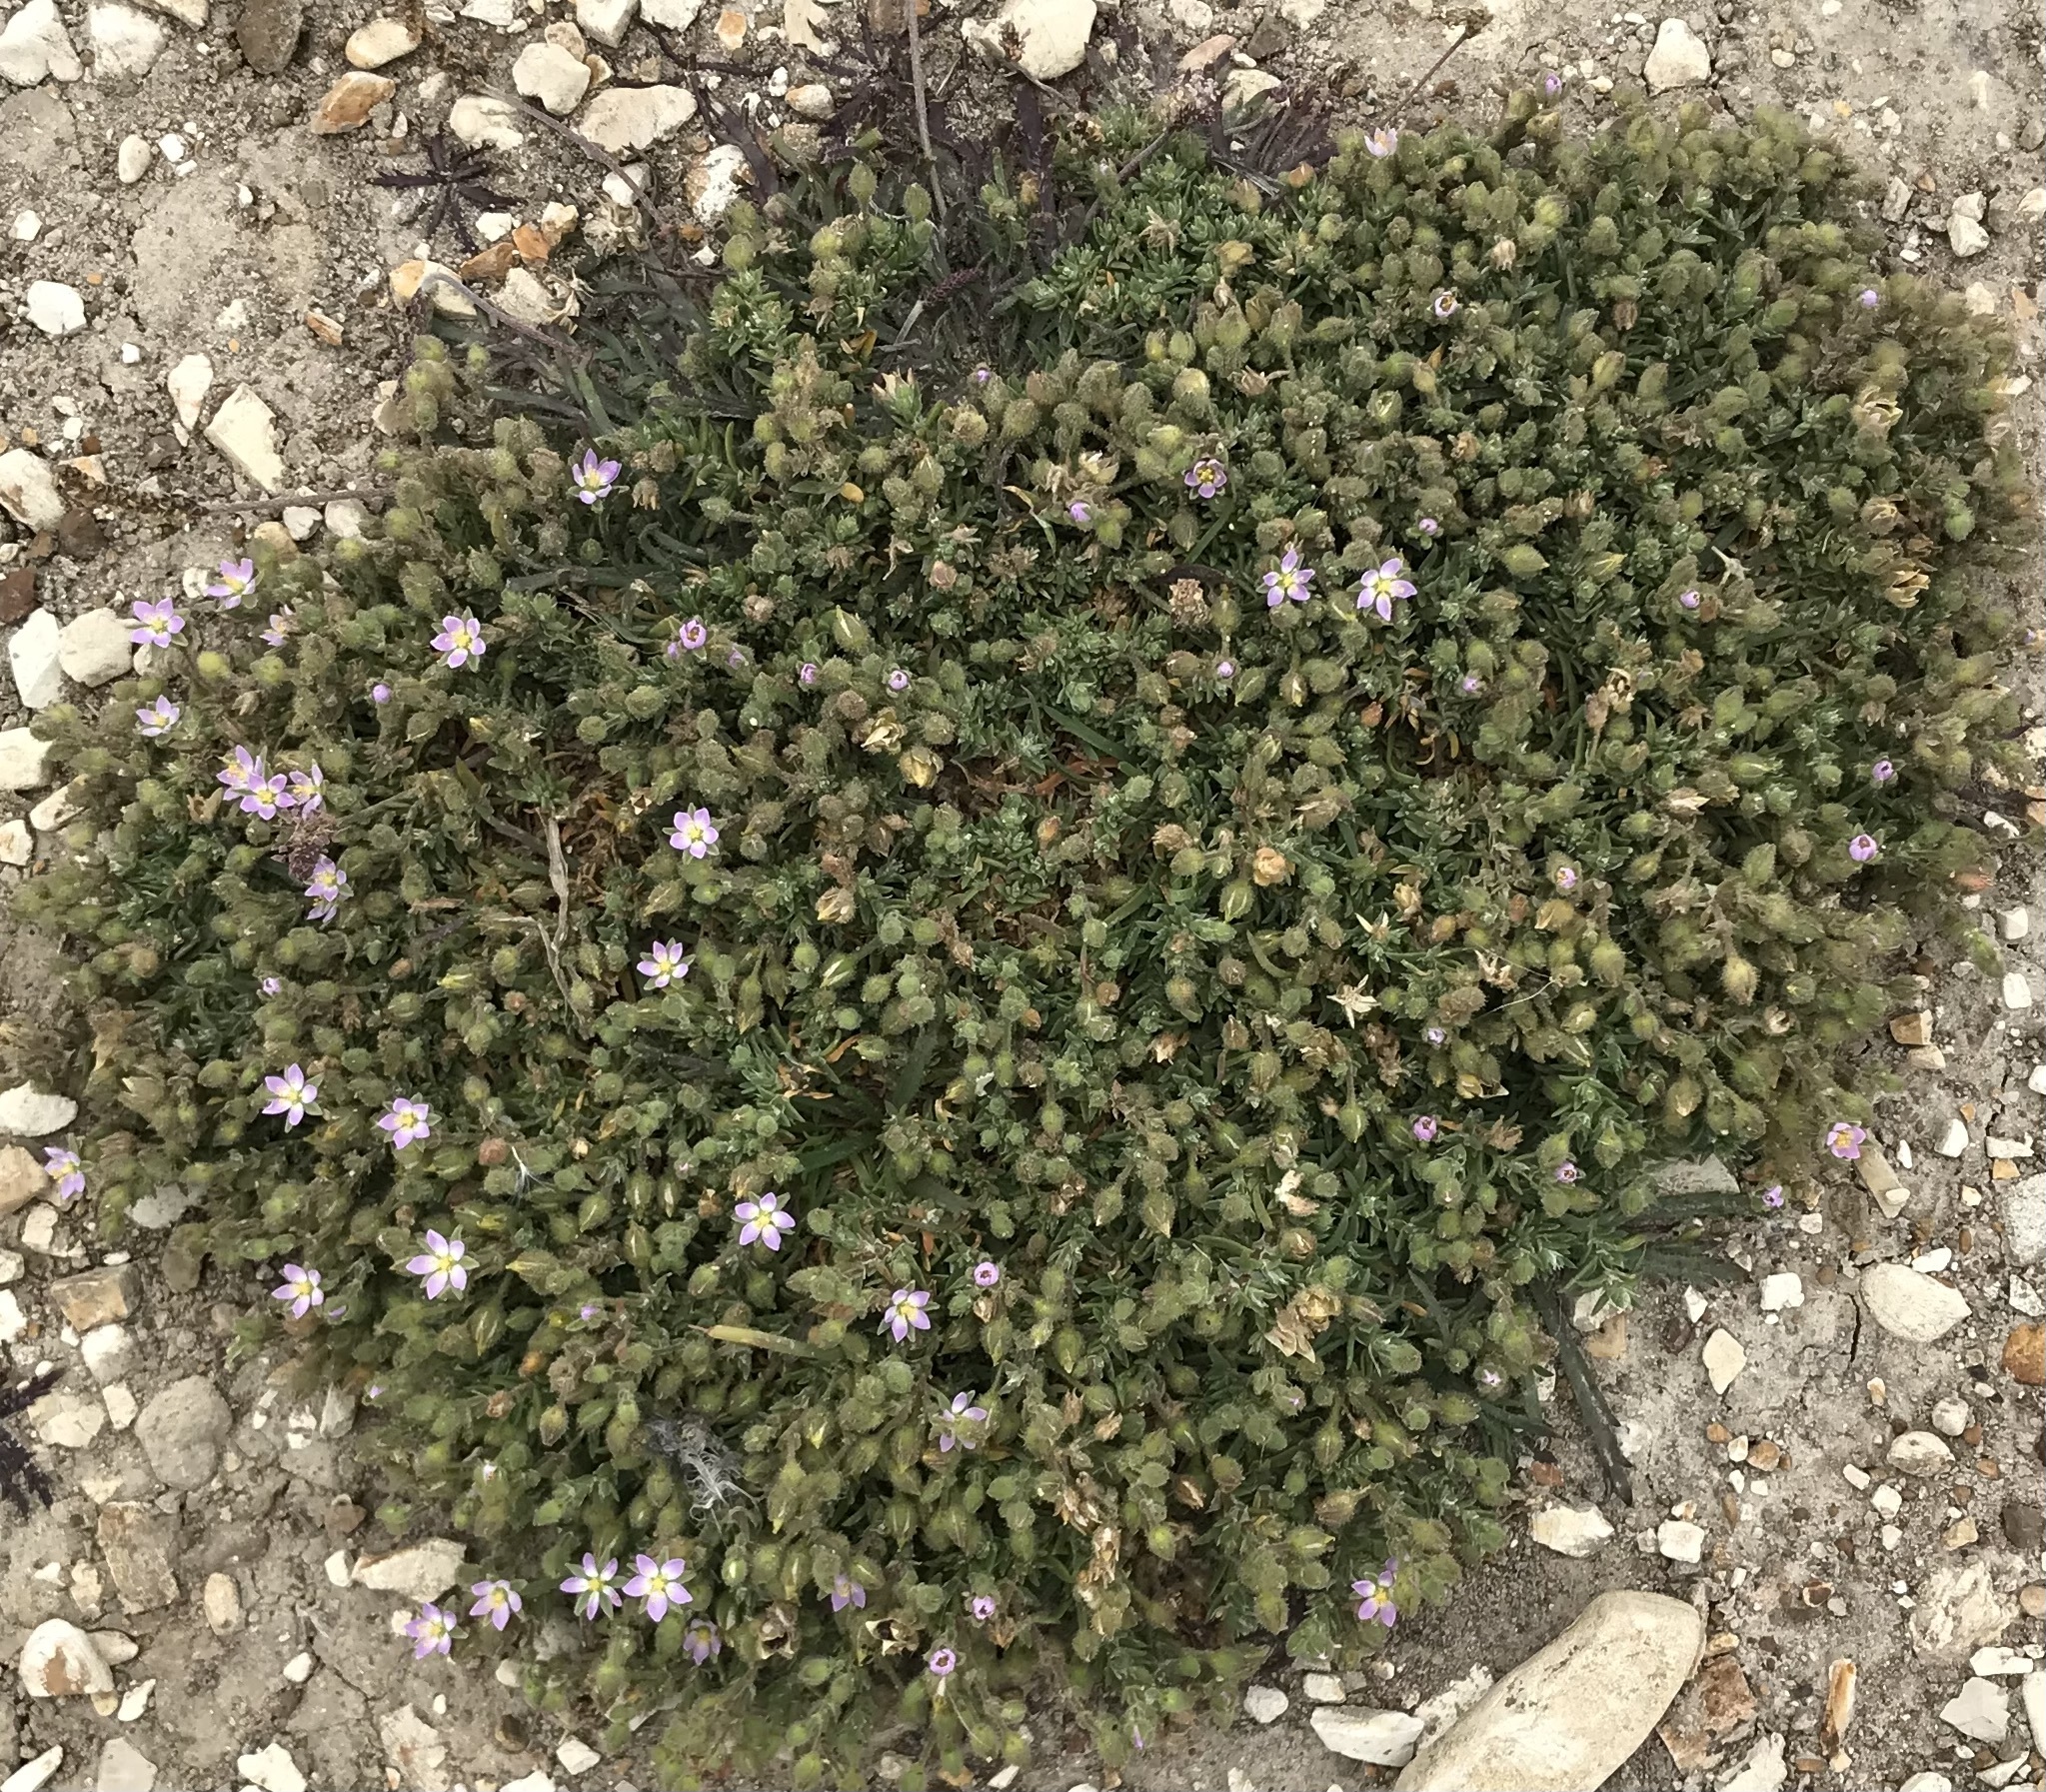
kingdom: Plantae
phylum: Tracheophyta
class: Magnoliopsida
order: Caryophyllales
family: Caryophyllaceae
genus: Spergularia
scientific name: Spergularia macrotheca
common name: Beach sand-spurrey
